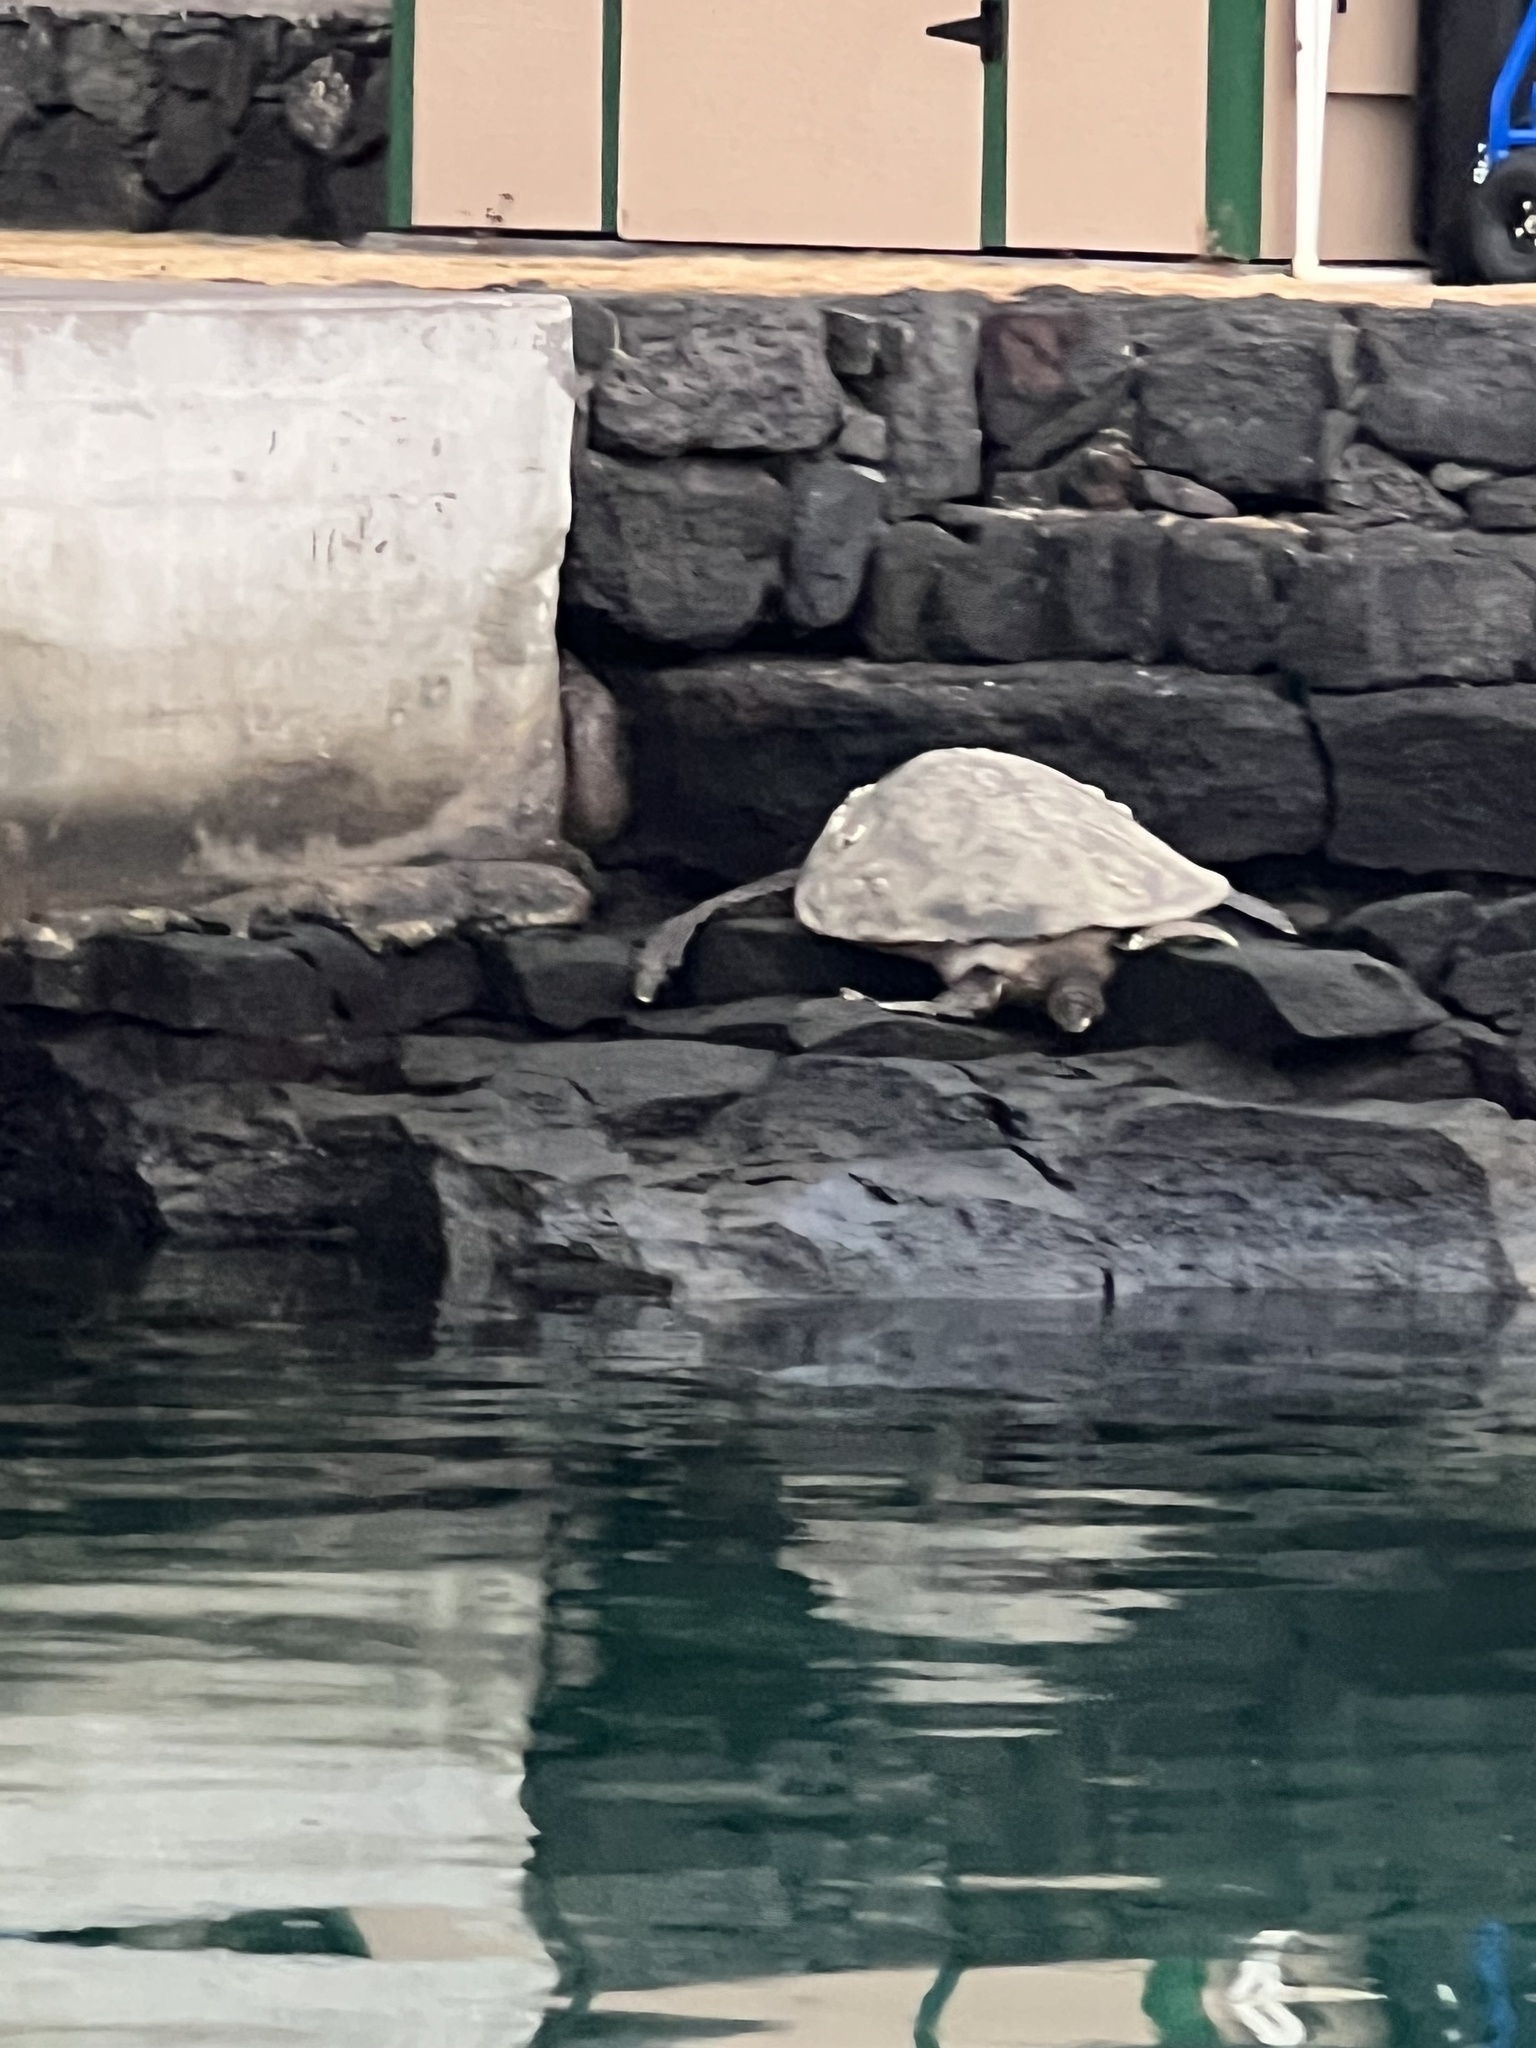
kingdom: Animalia
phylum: Chordata
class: Testudines
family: Cheloniidae
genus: Chelonia
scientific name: Chelonia mydas
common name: Green turtle
